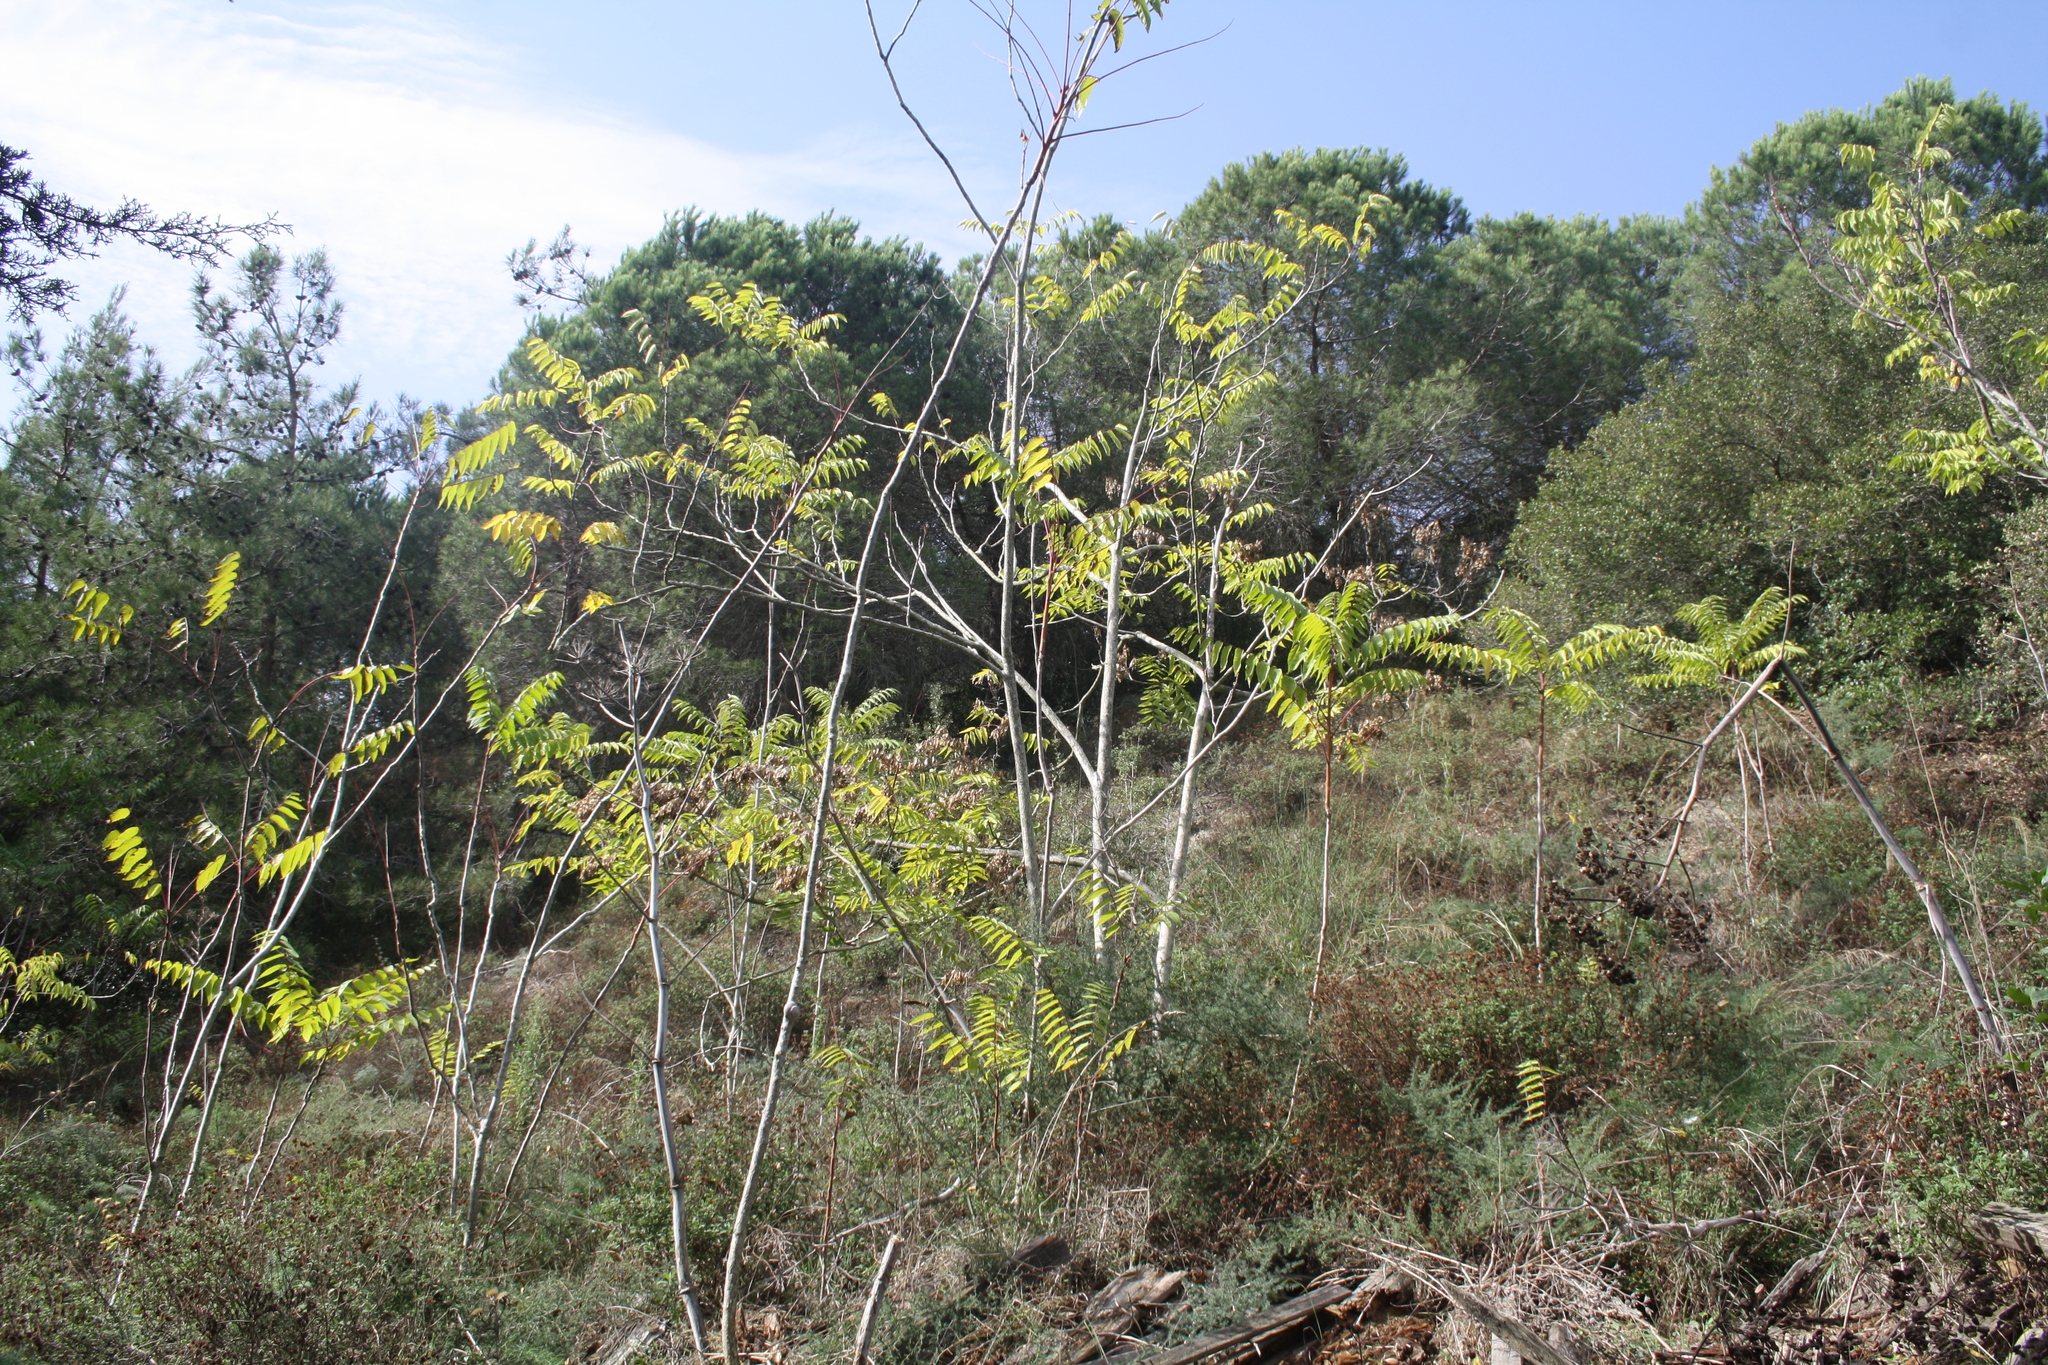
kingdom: Plantae
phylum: Tracheophyta
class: Magnoliopsida
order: Sapindales
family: Simaroubaceae
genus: Ailanthus
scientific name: Ailanthus altissima
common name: Tree-of-heaven
